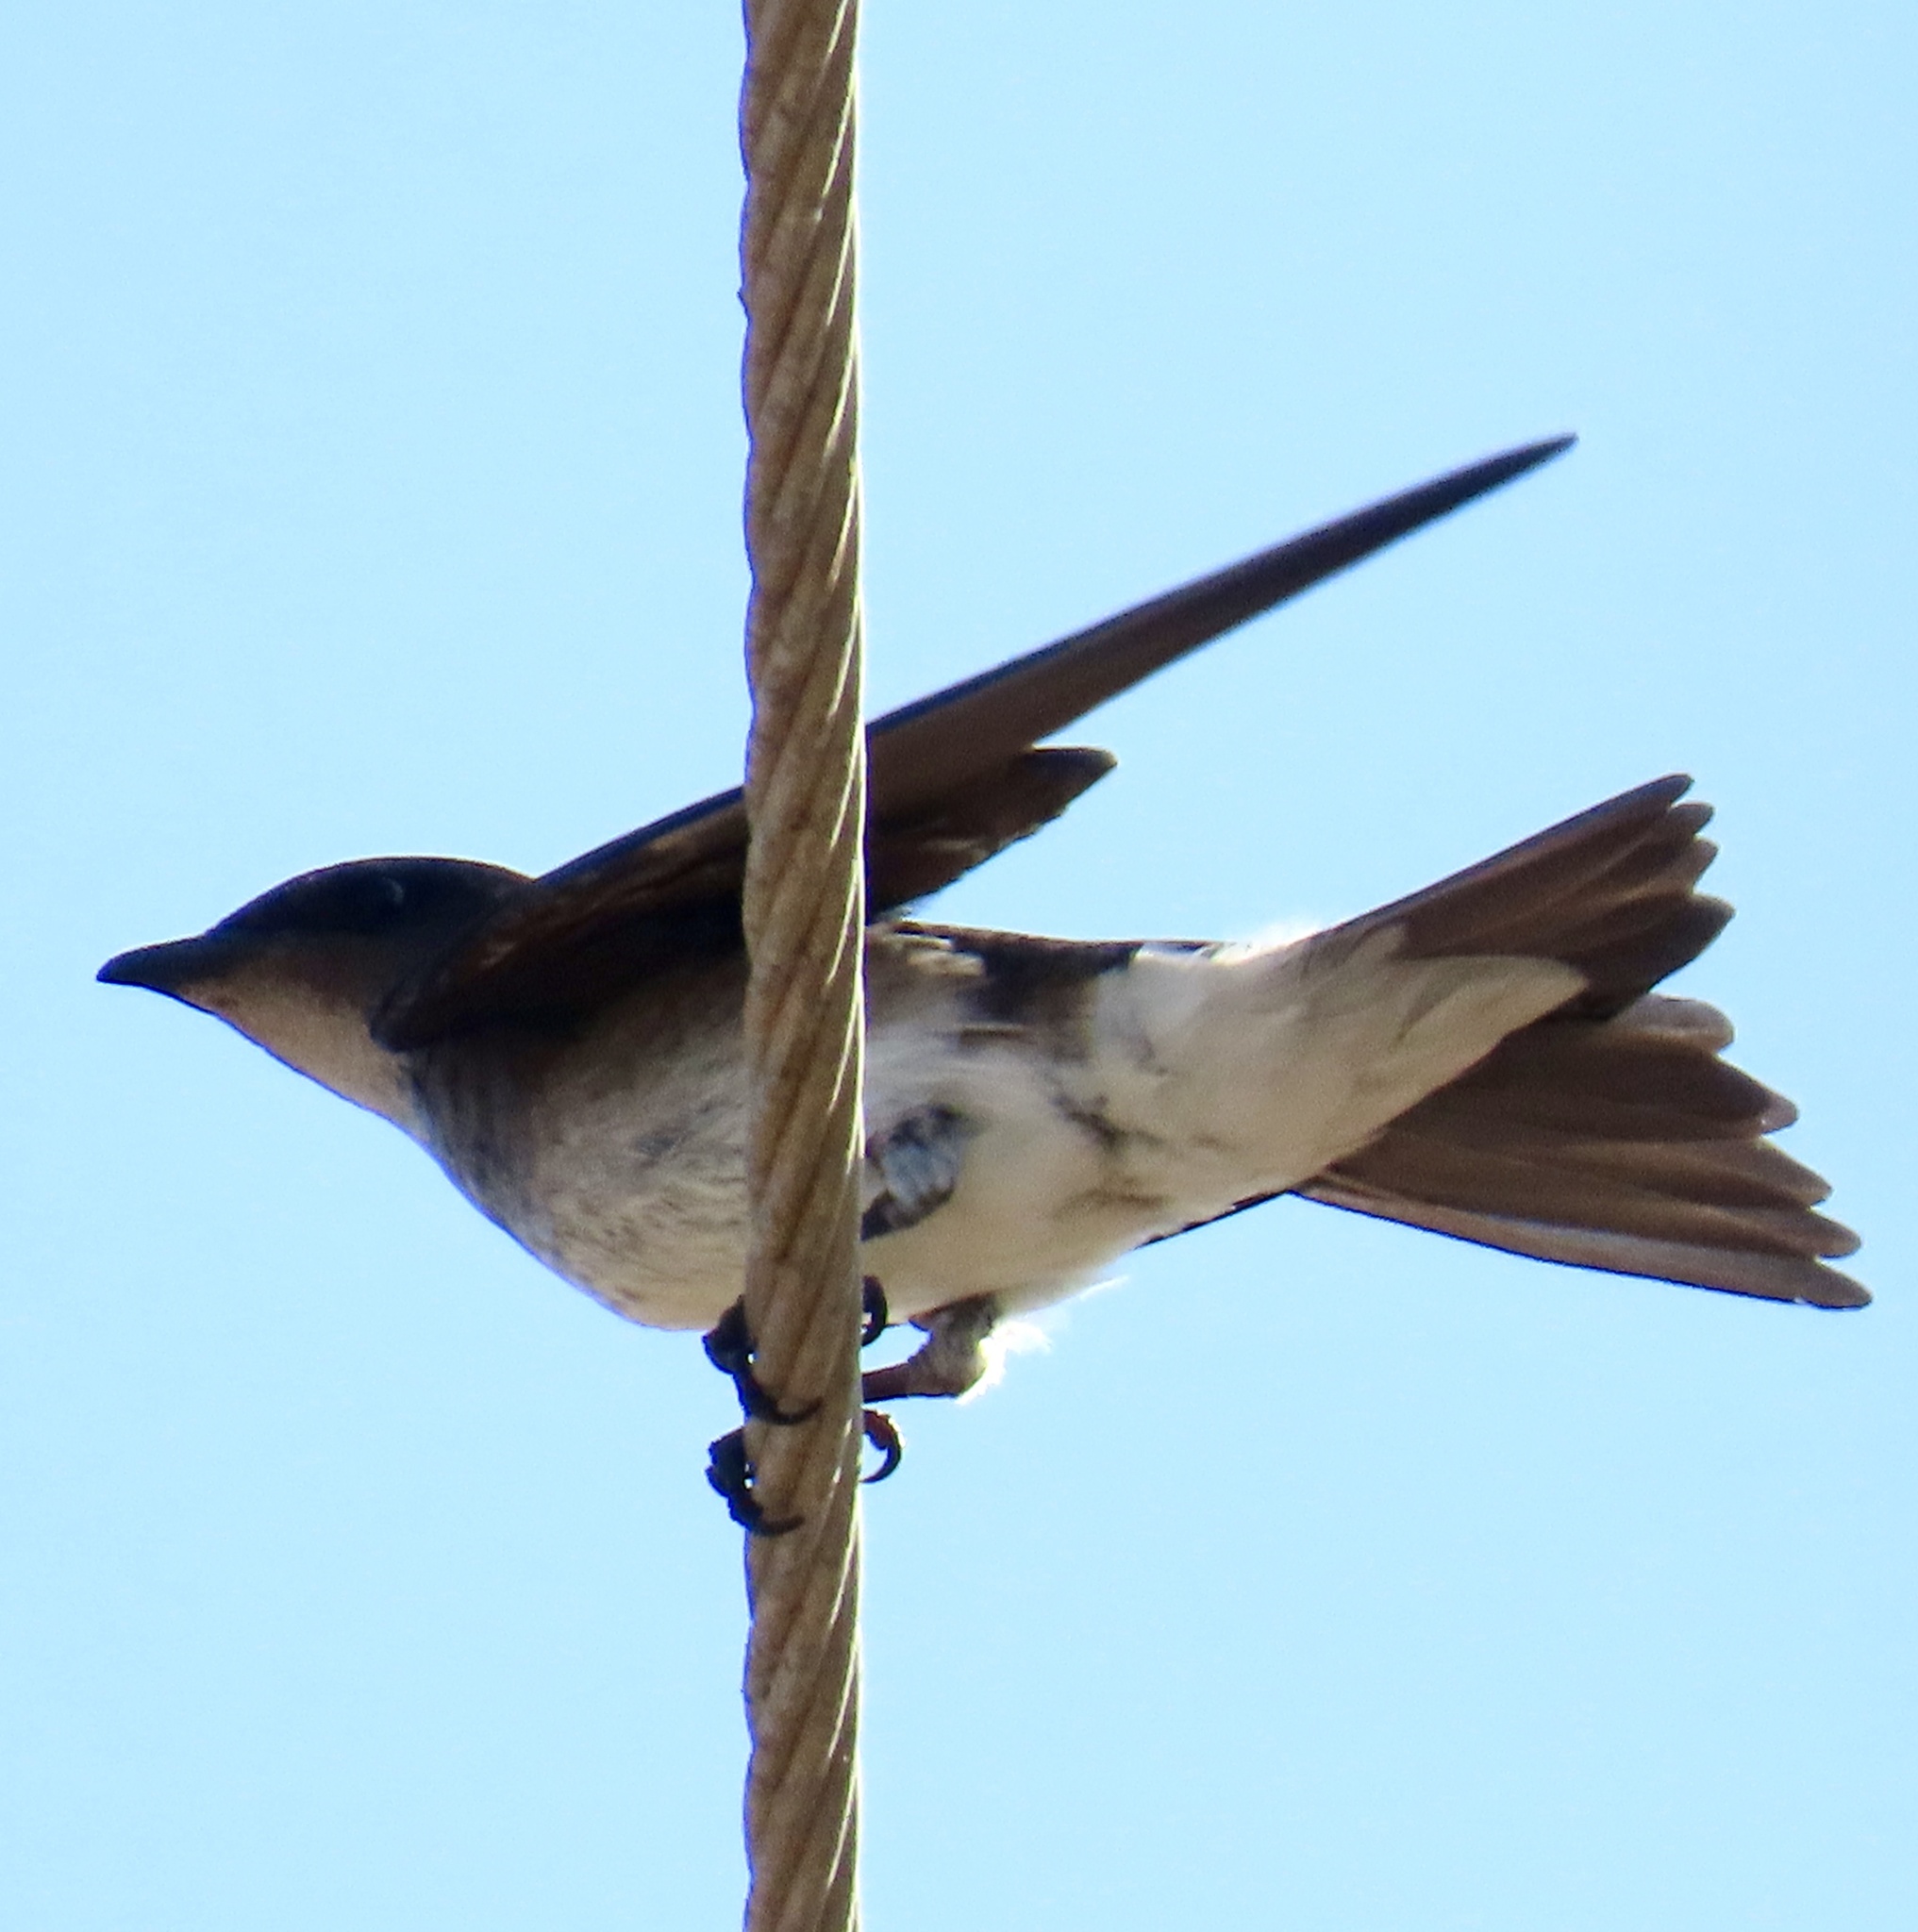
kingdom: Animalia
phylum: Chordata
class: Aves
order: Passeriformes
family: Hirundinidae
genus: Progne
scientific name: Progne chalybea
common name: Grey-breasted martin
